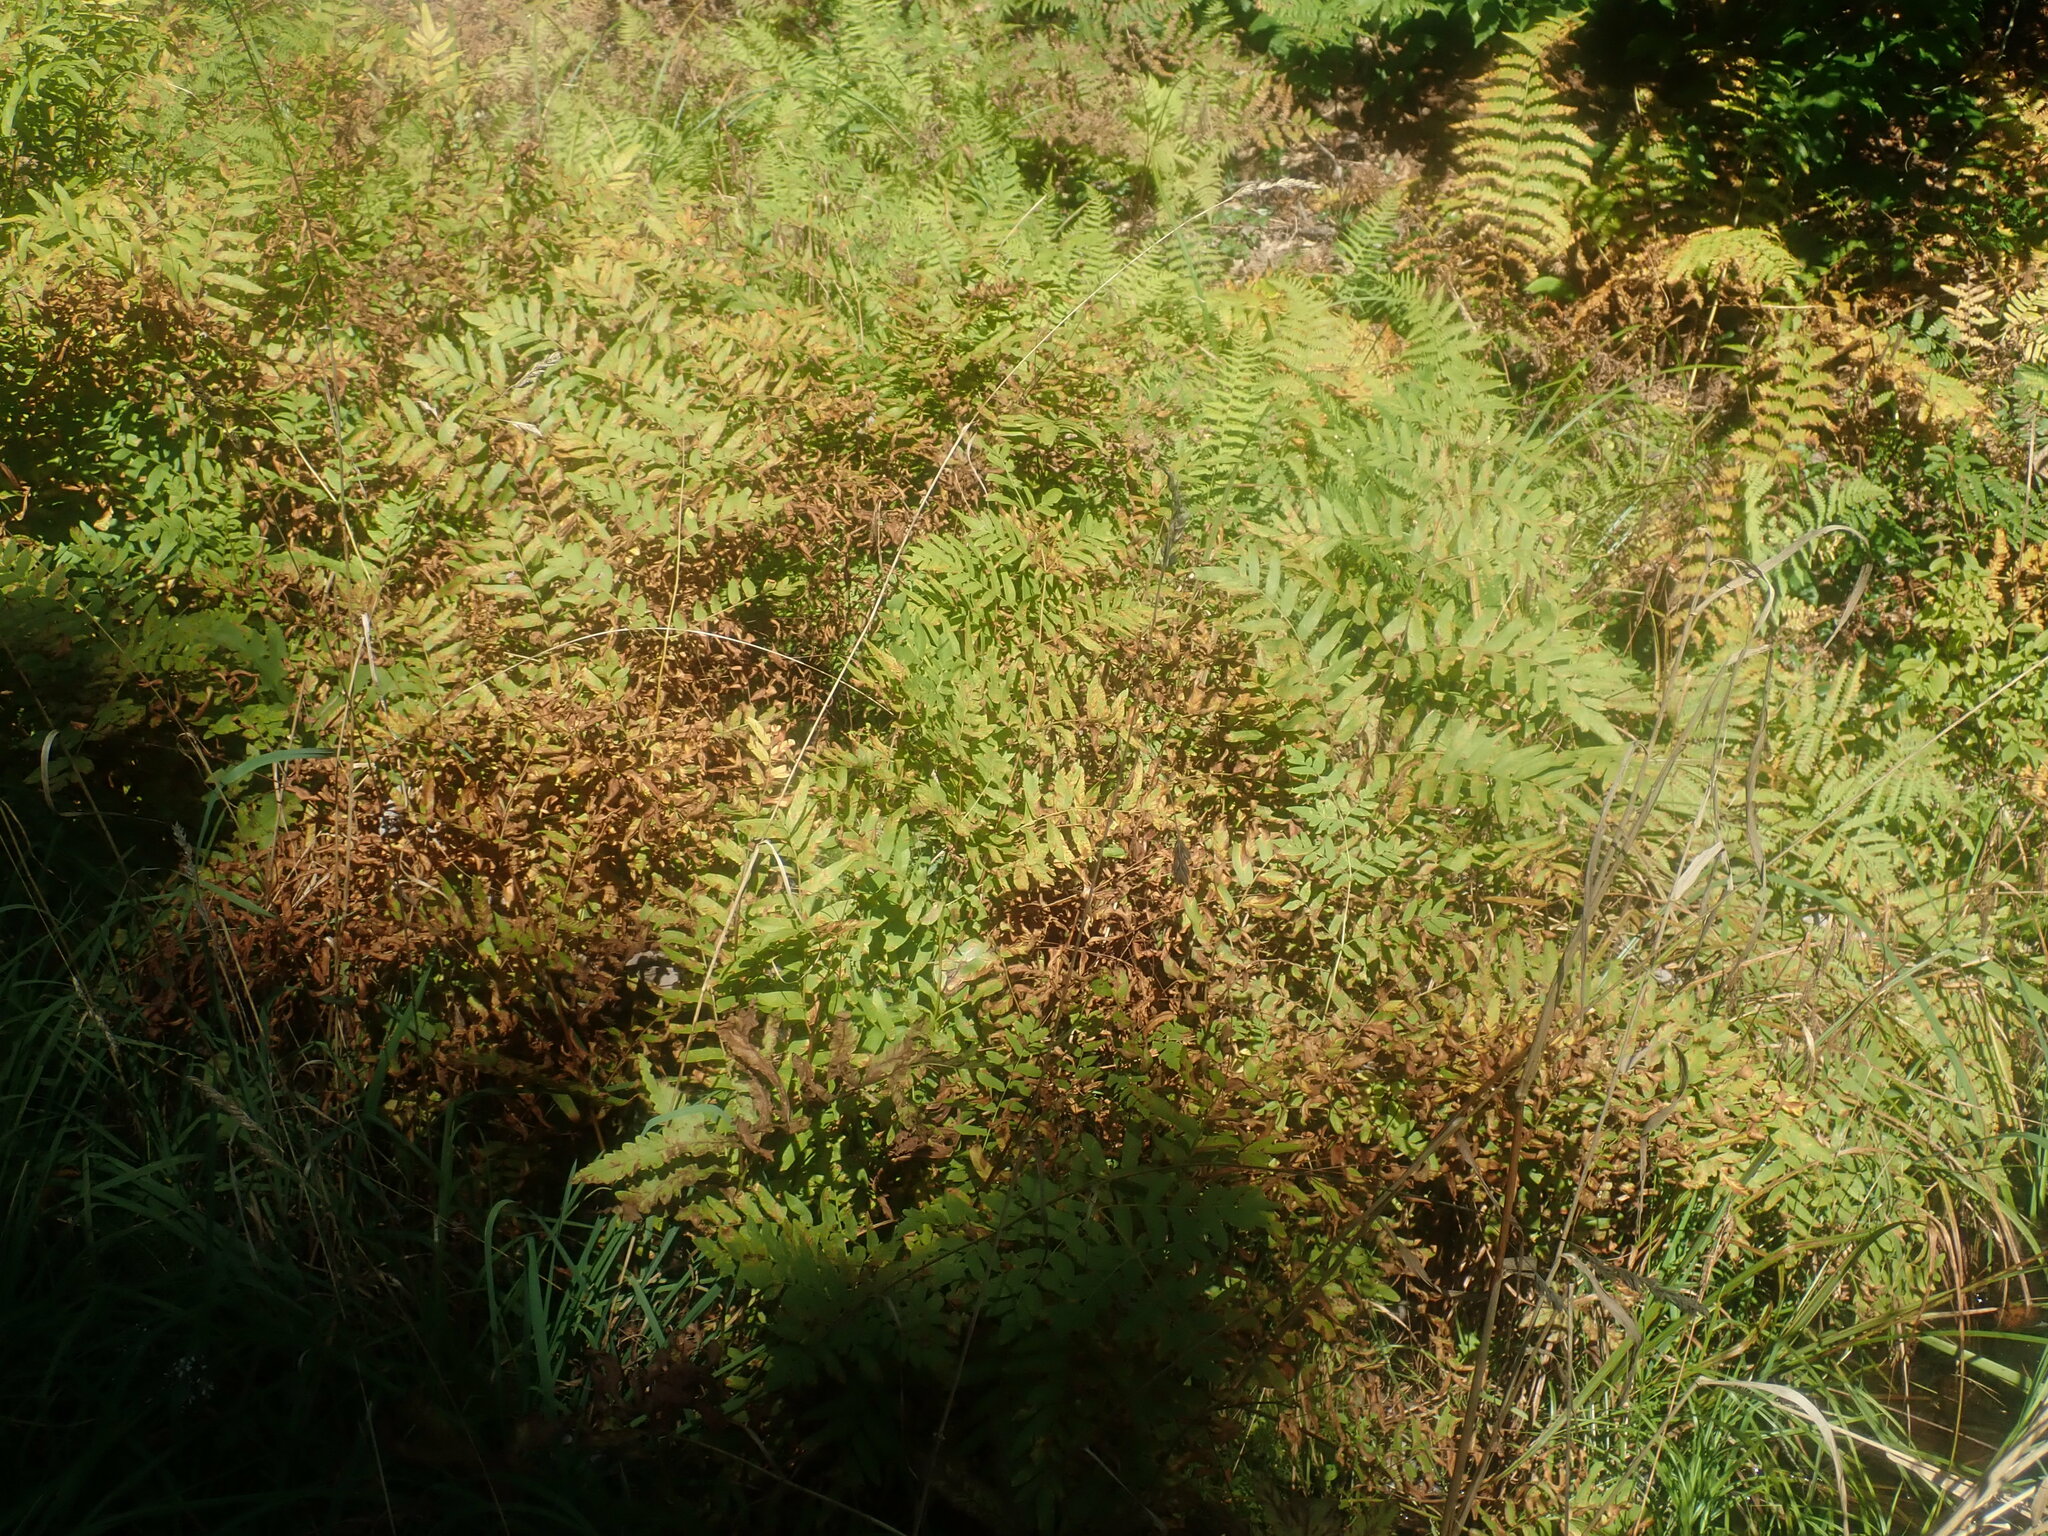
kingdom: Plantae
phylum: Tracheophyta
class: Polypodiopsida
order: Osmundales
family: Osmundaceae
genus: Osmunda
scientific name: Osmunda spectabilis
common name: American royal fern
